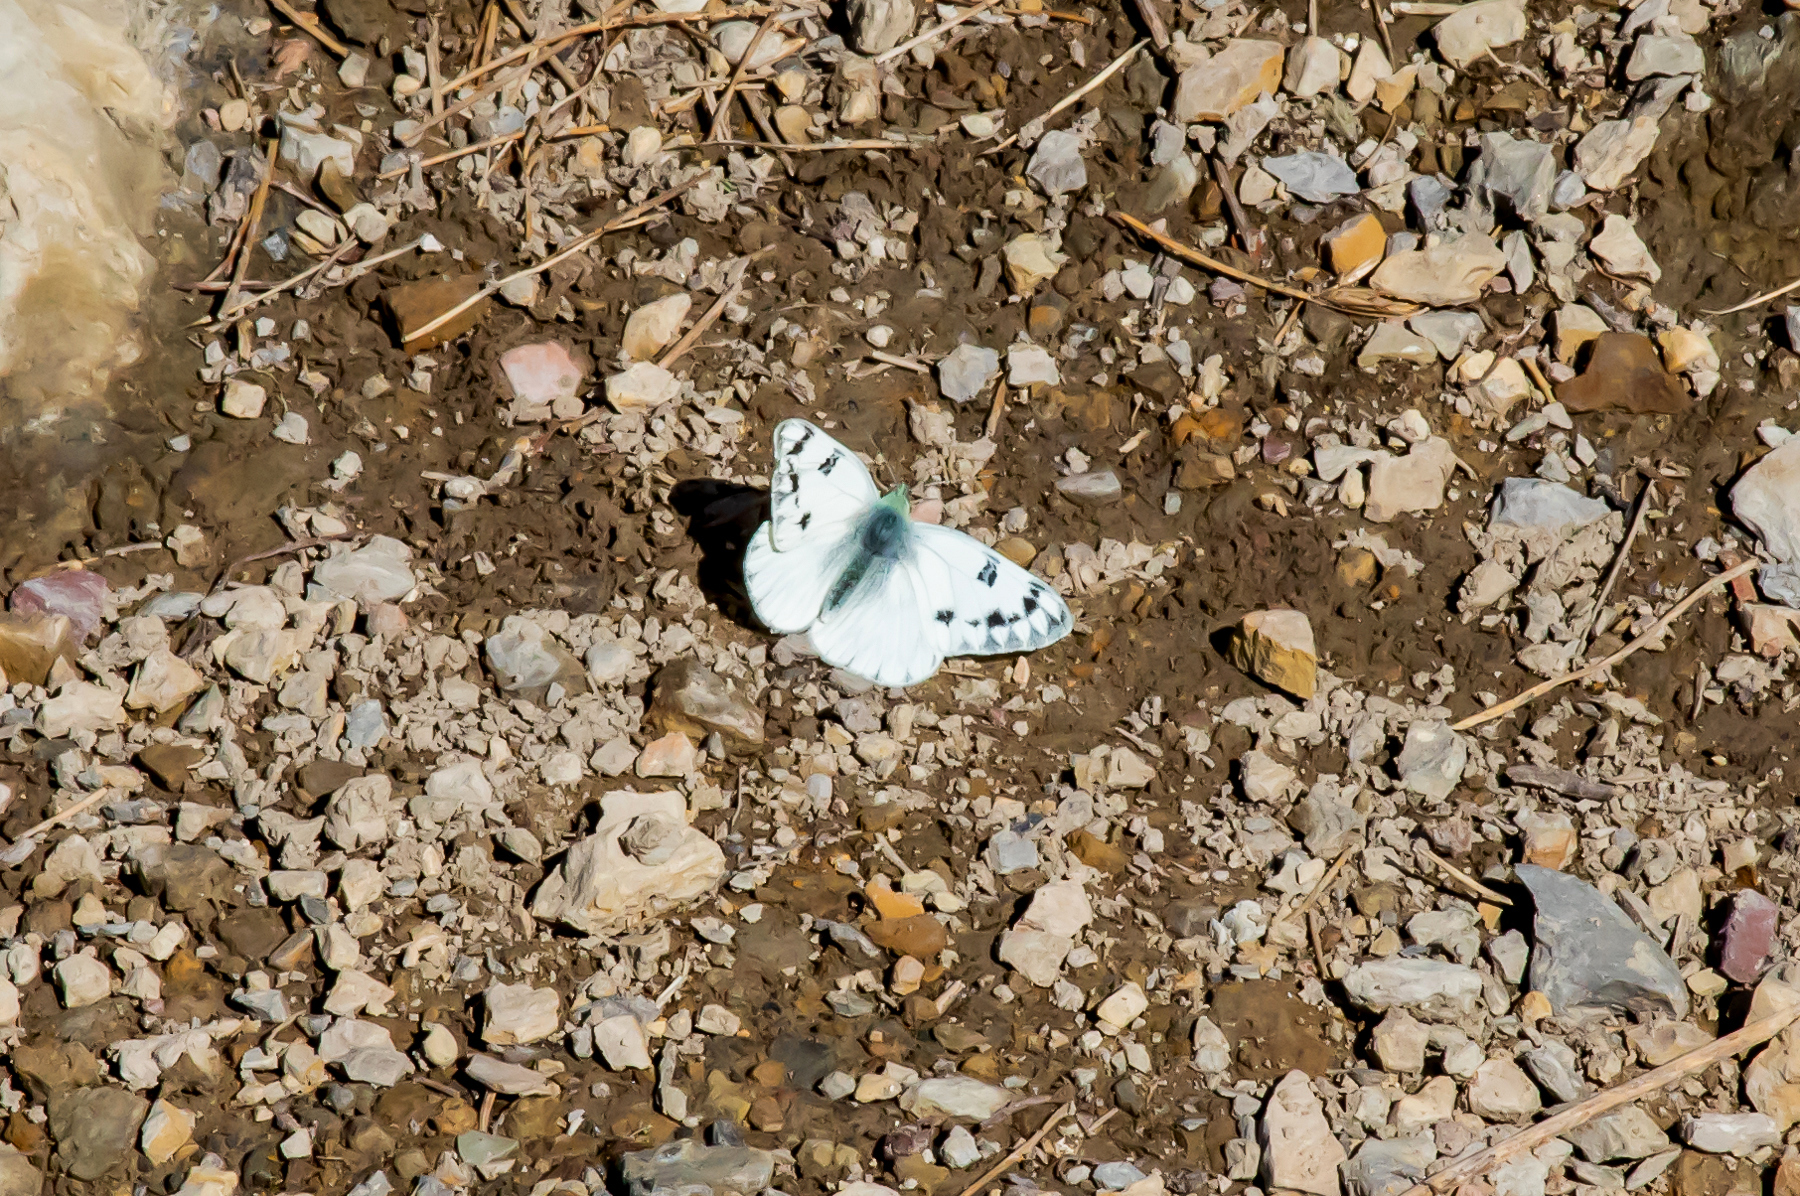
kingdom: Animalia
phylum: Arthropoda
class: Insecta
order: Lepidoptera
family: Pieridae
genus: Pontia
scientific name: Pontia occidentalis
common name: Western white
